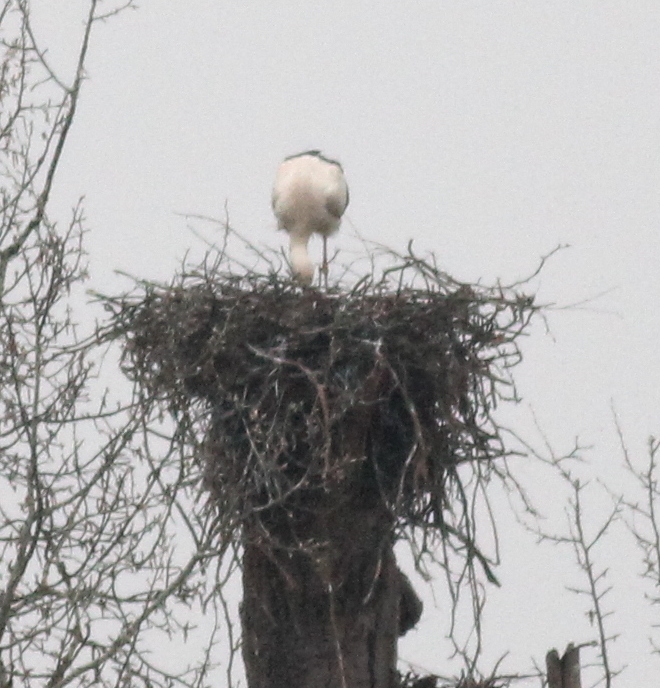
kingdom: Animalia
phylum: Chordata
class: Aves
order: Ciconiiformes
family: Ciconiidae
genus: Ciconia
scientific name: Ciconia ciconia
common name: White stork
